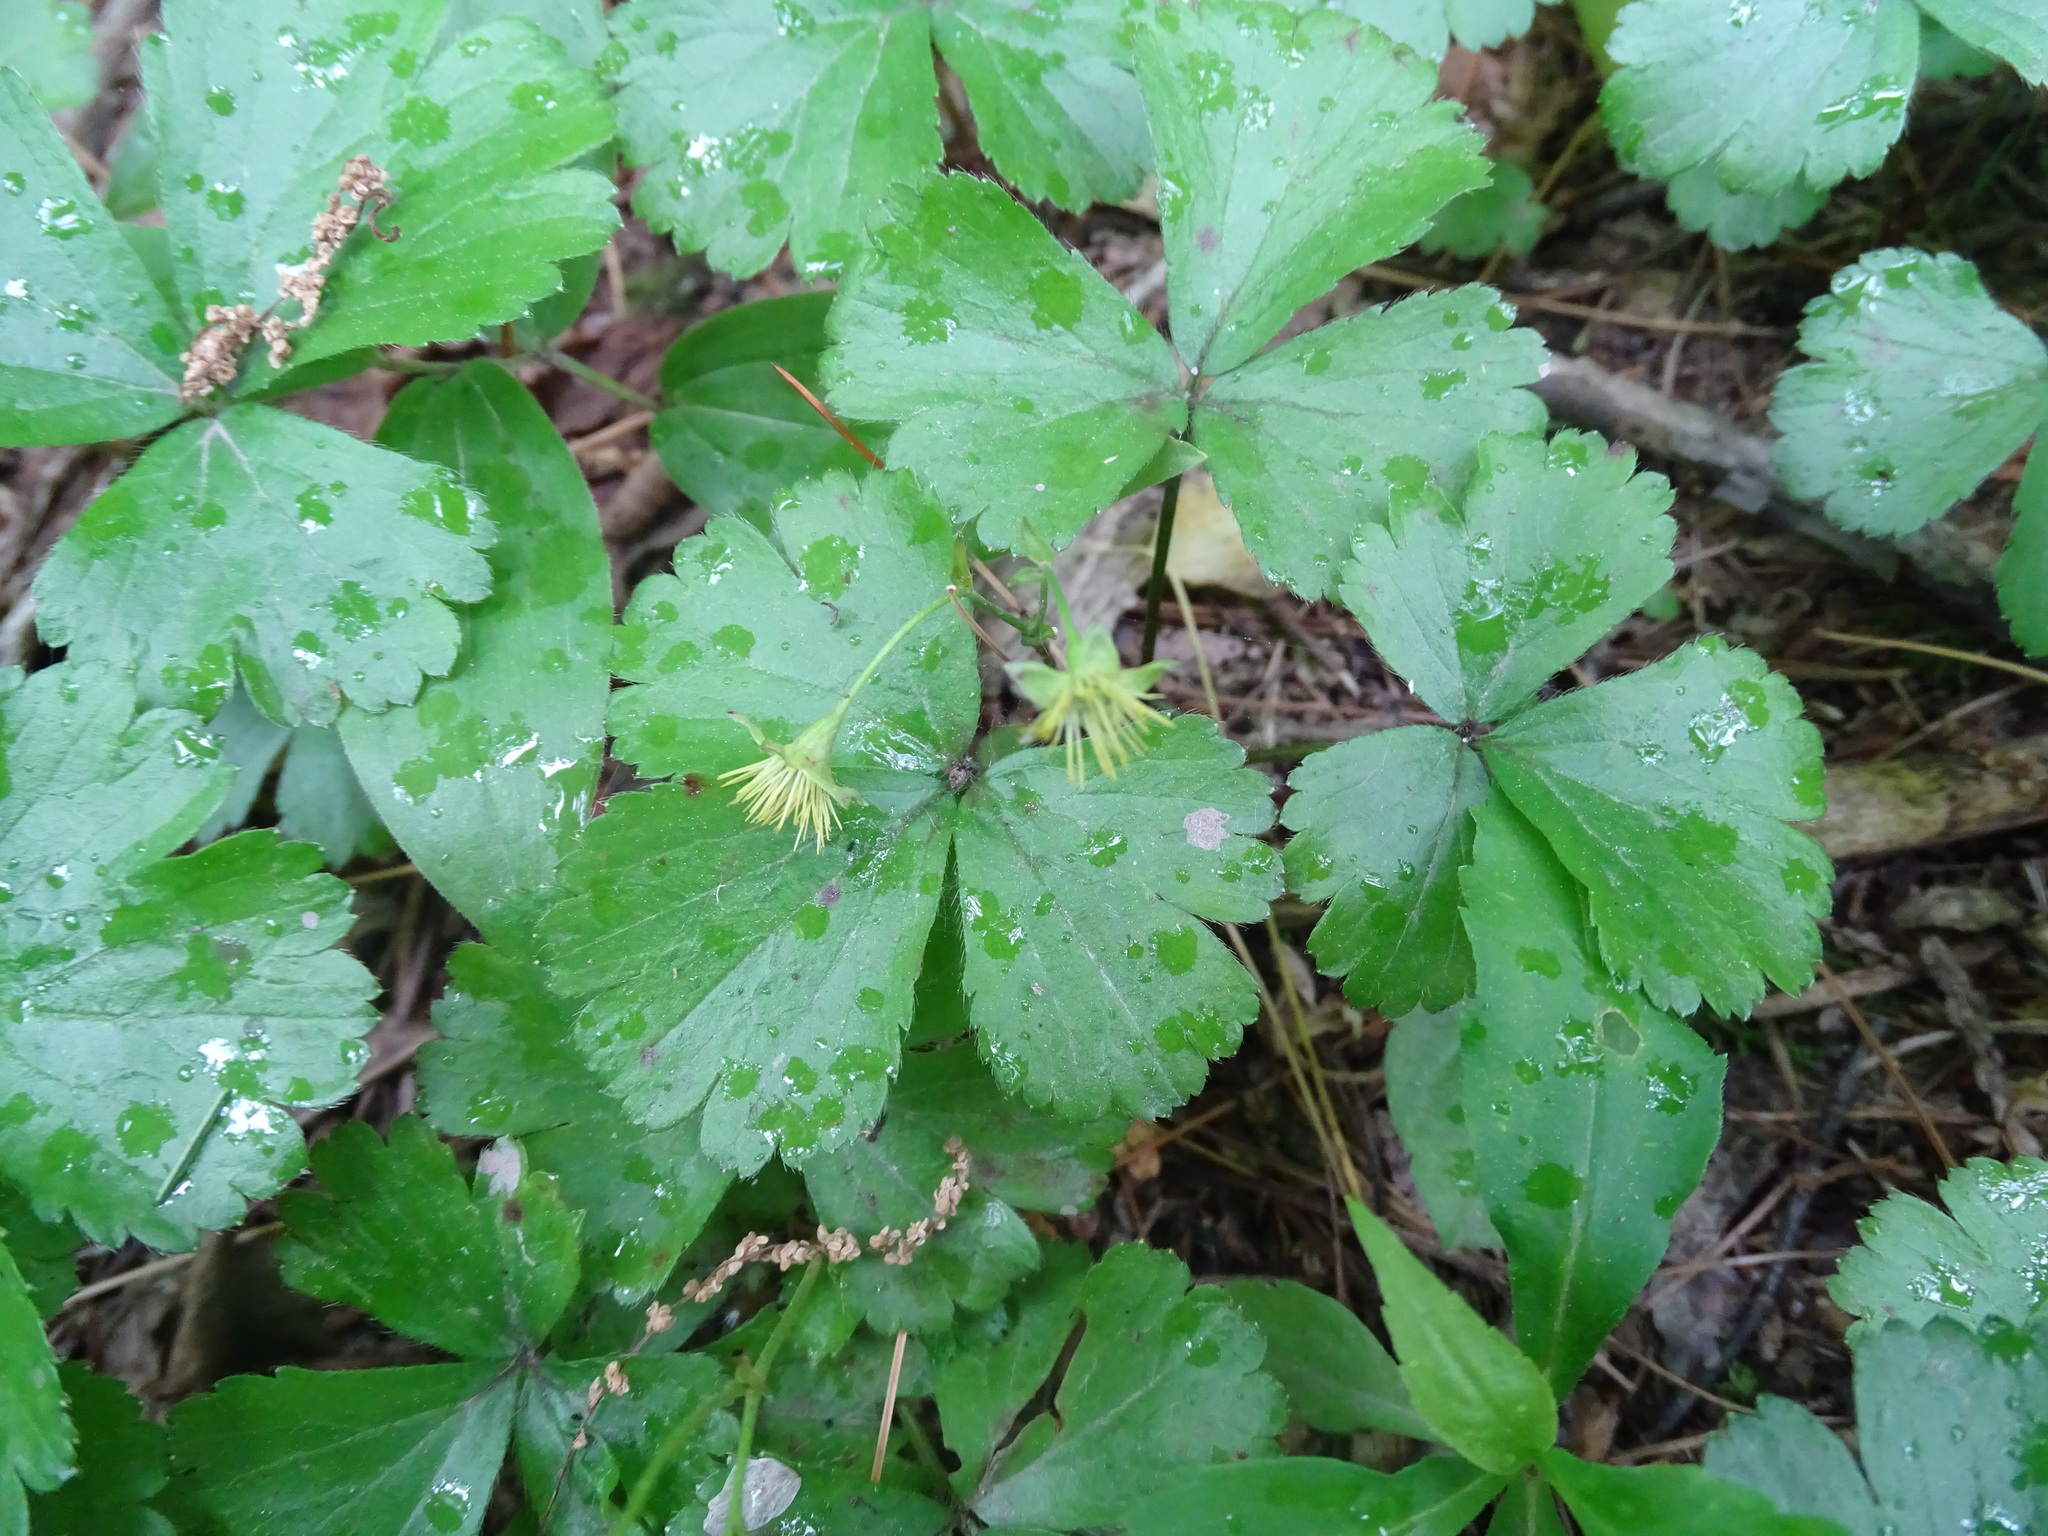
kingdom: Plantae
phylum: Tracheophyta
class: Magnoliopsida
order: Rosales
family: Rosaceae
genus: Geum
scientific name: Geum fragarioides
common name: Appalachian barren strawberry
